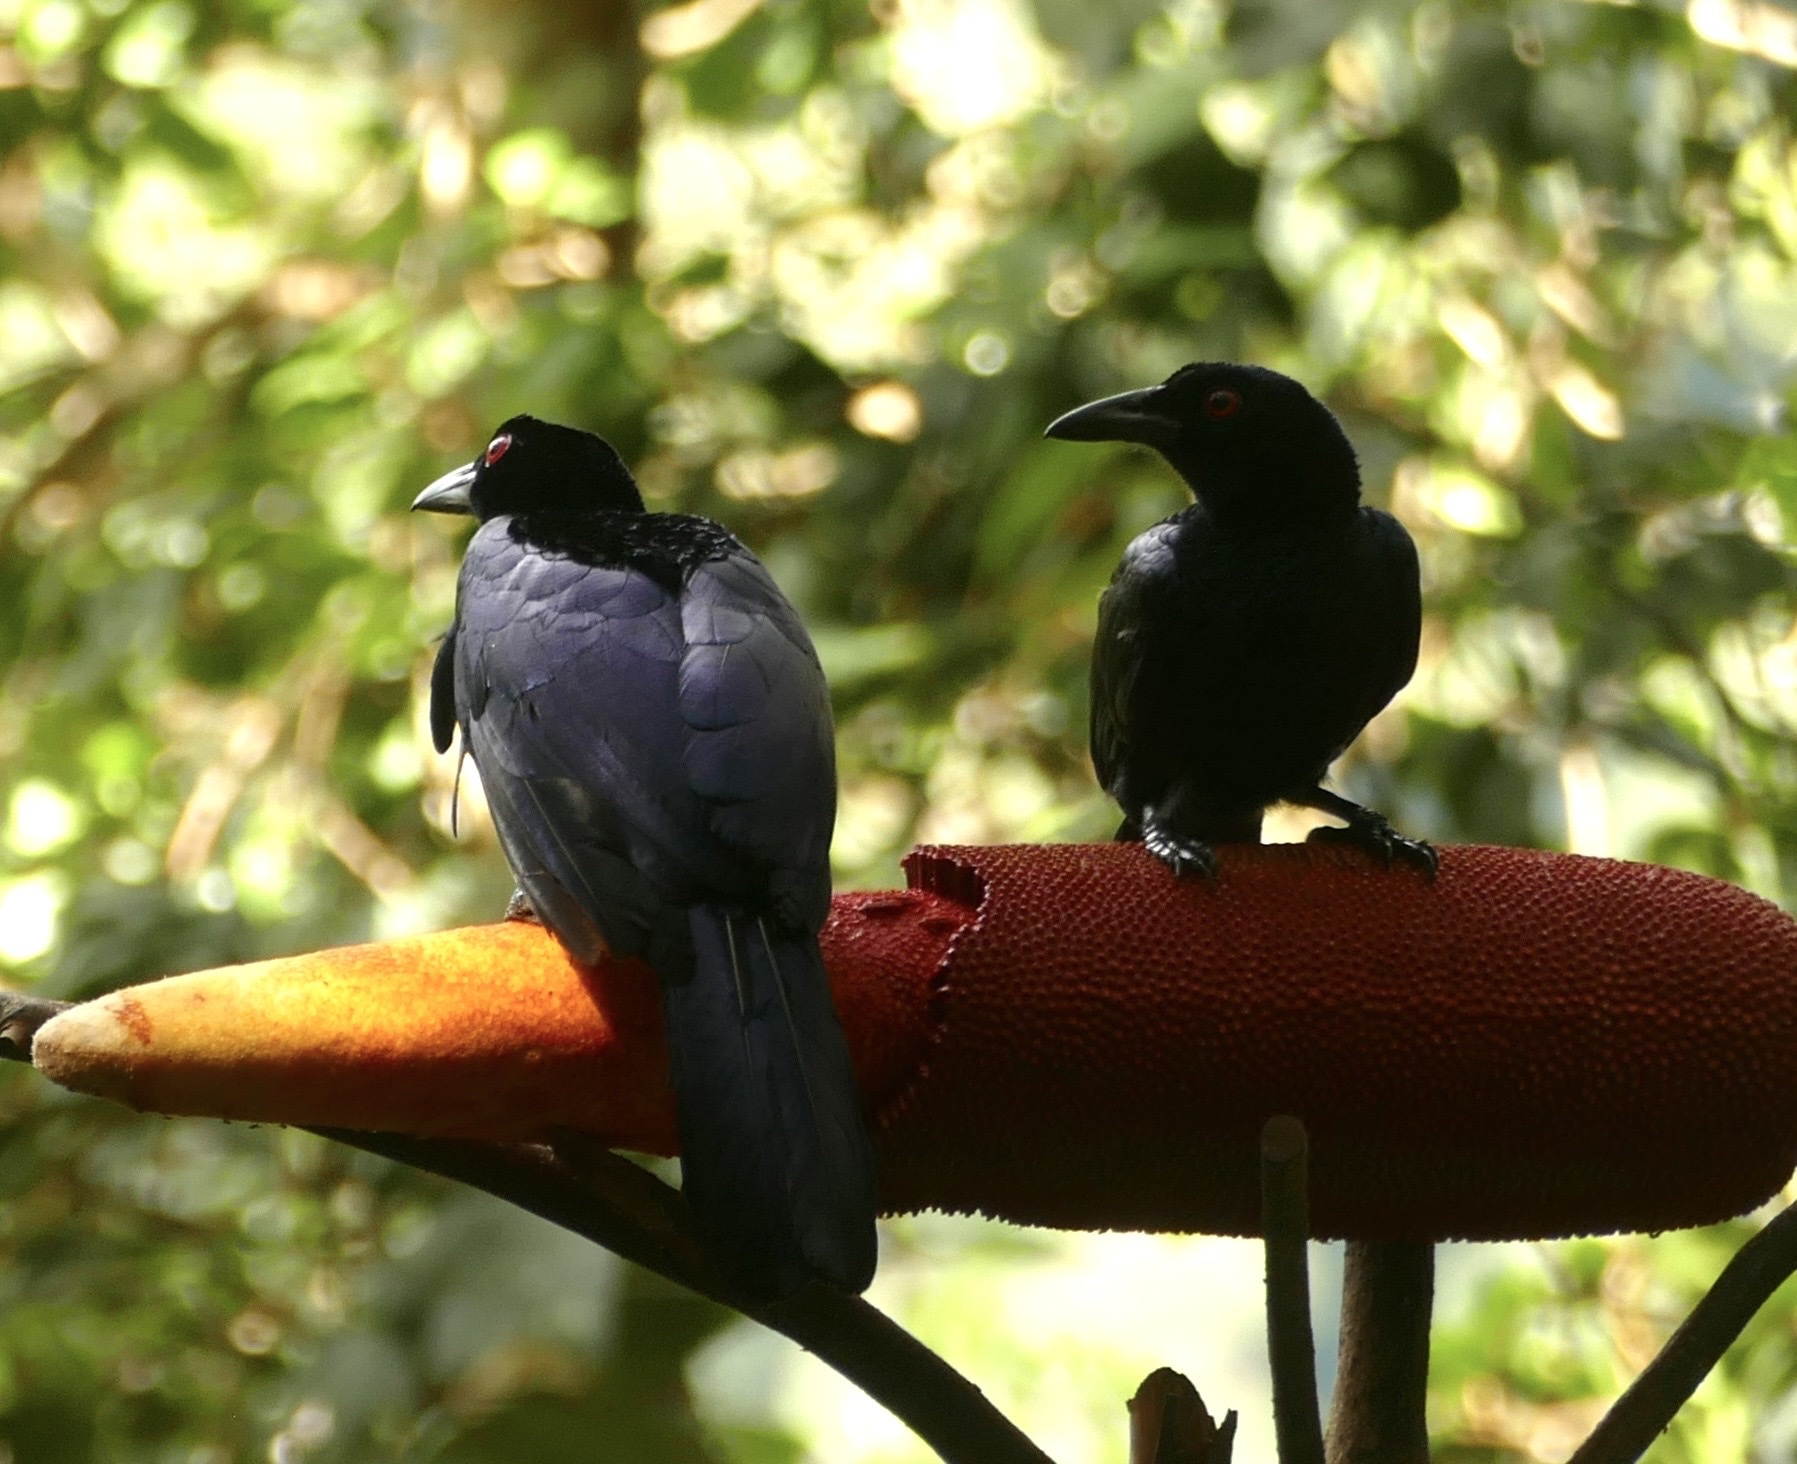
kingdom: Animalia
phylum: Chordata
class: Aves
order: Passeriformes
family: Paradisaeidae
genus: Manucodia
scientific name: Manucodia chalybatus
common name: Crinkle-collared manucode
